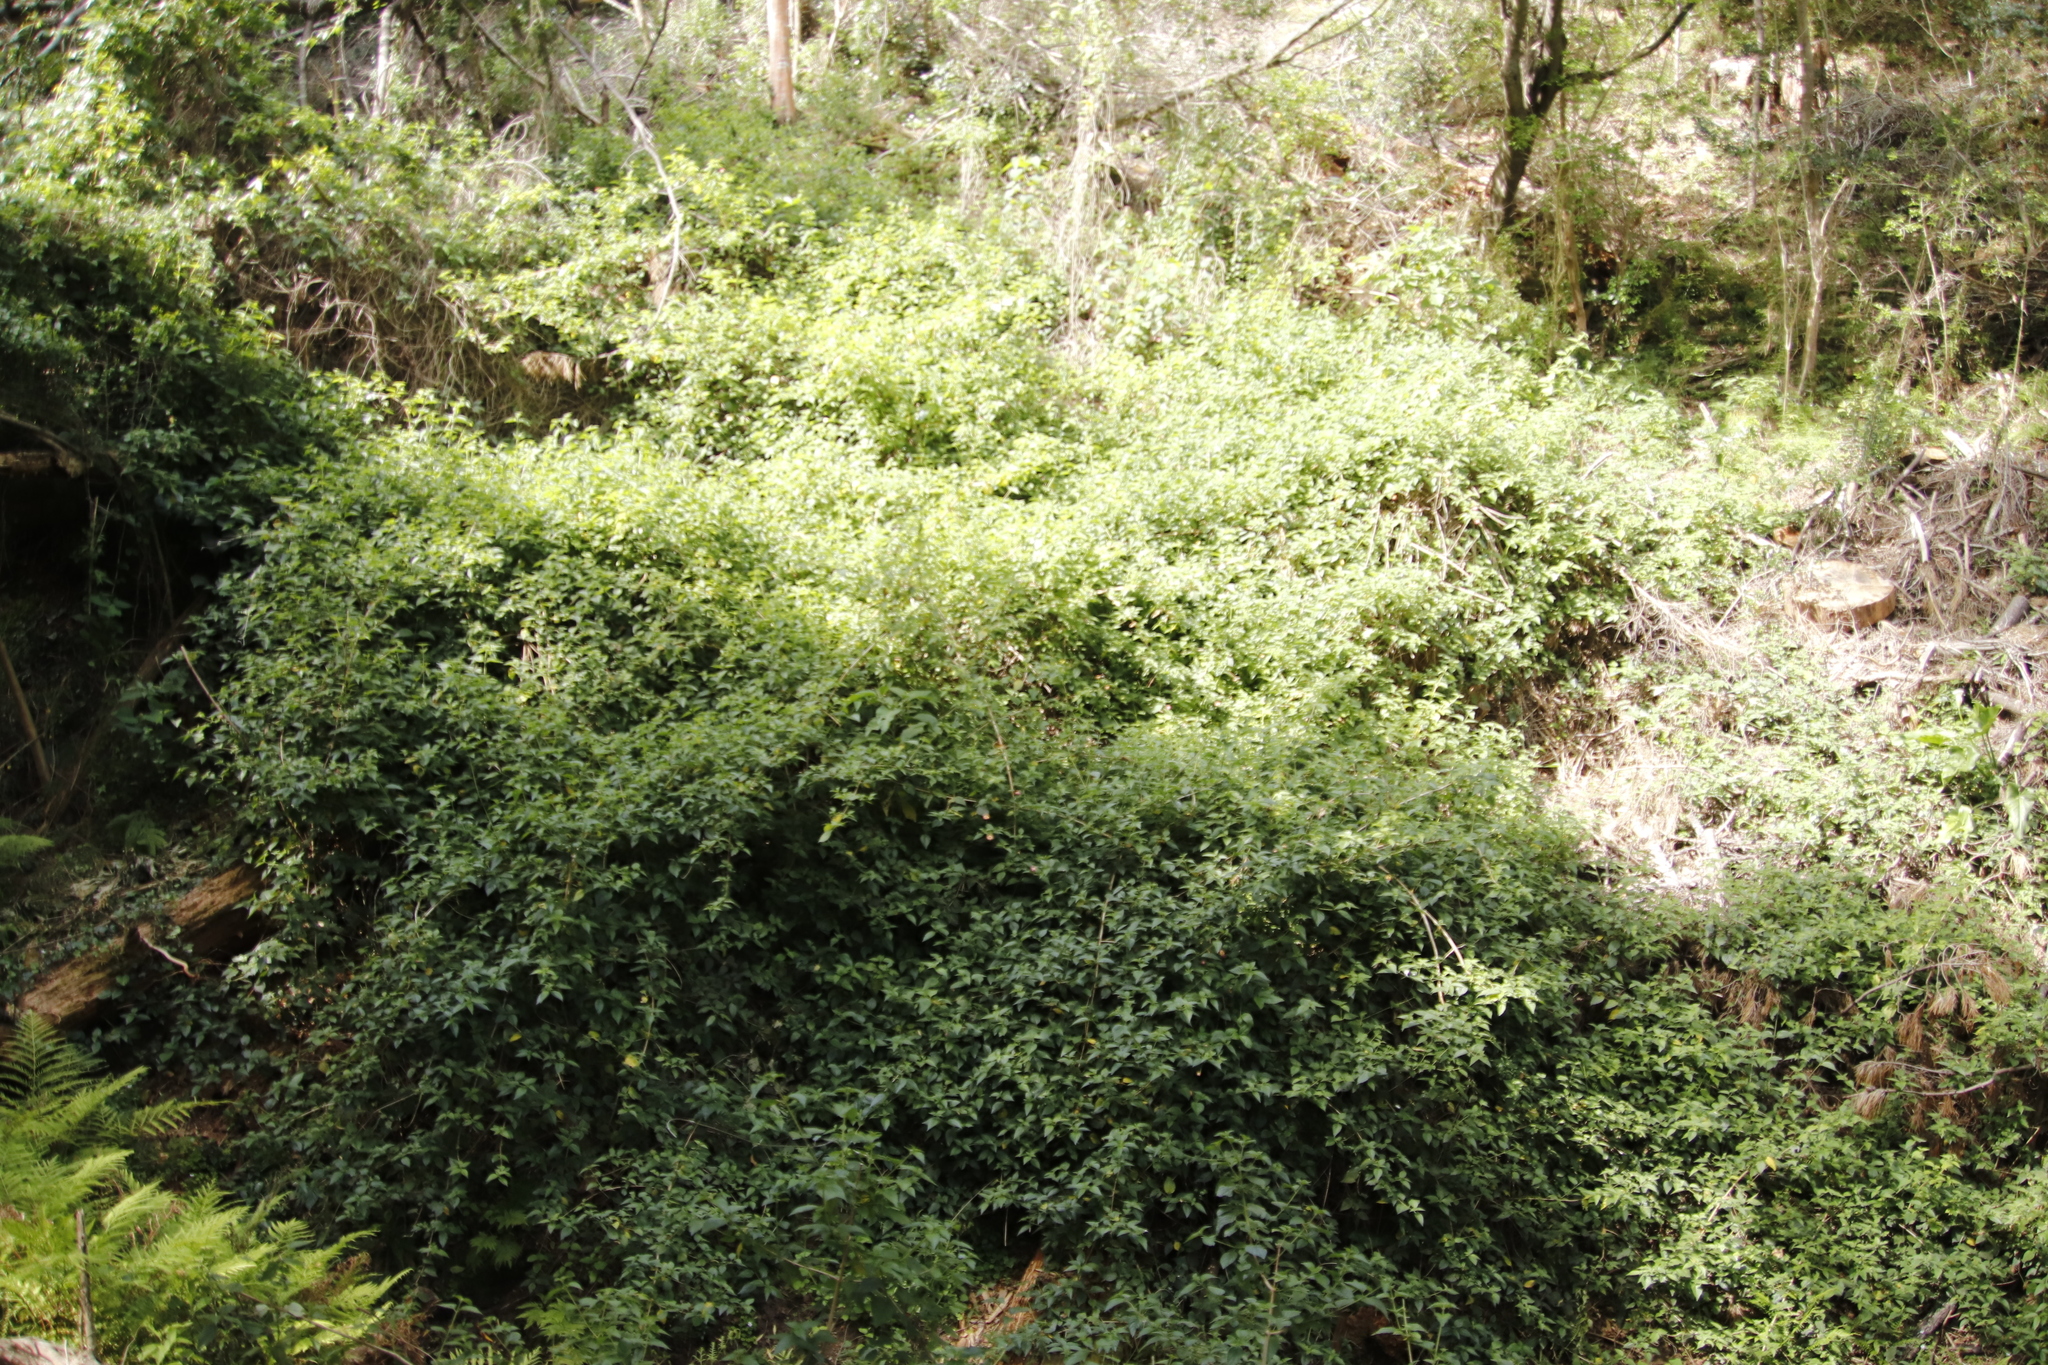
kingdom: Plantae
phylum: Tracheophyta
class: Magnoliopsida
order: Lamiales
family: Verbenaceae
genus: Lantana
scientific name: Lantana camara
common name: Lantana
